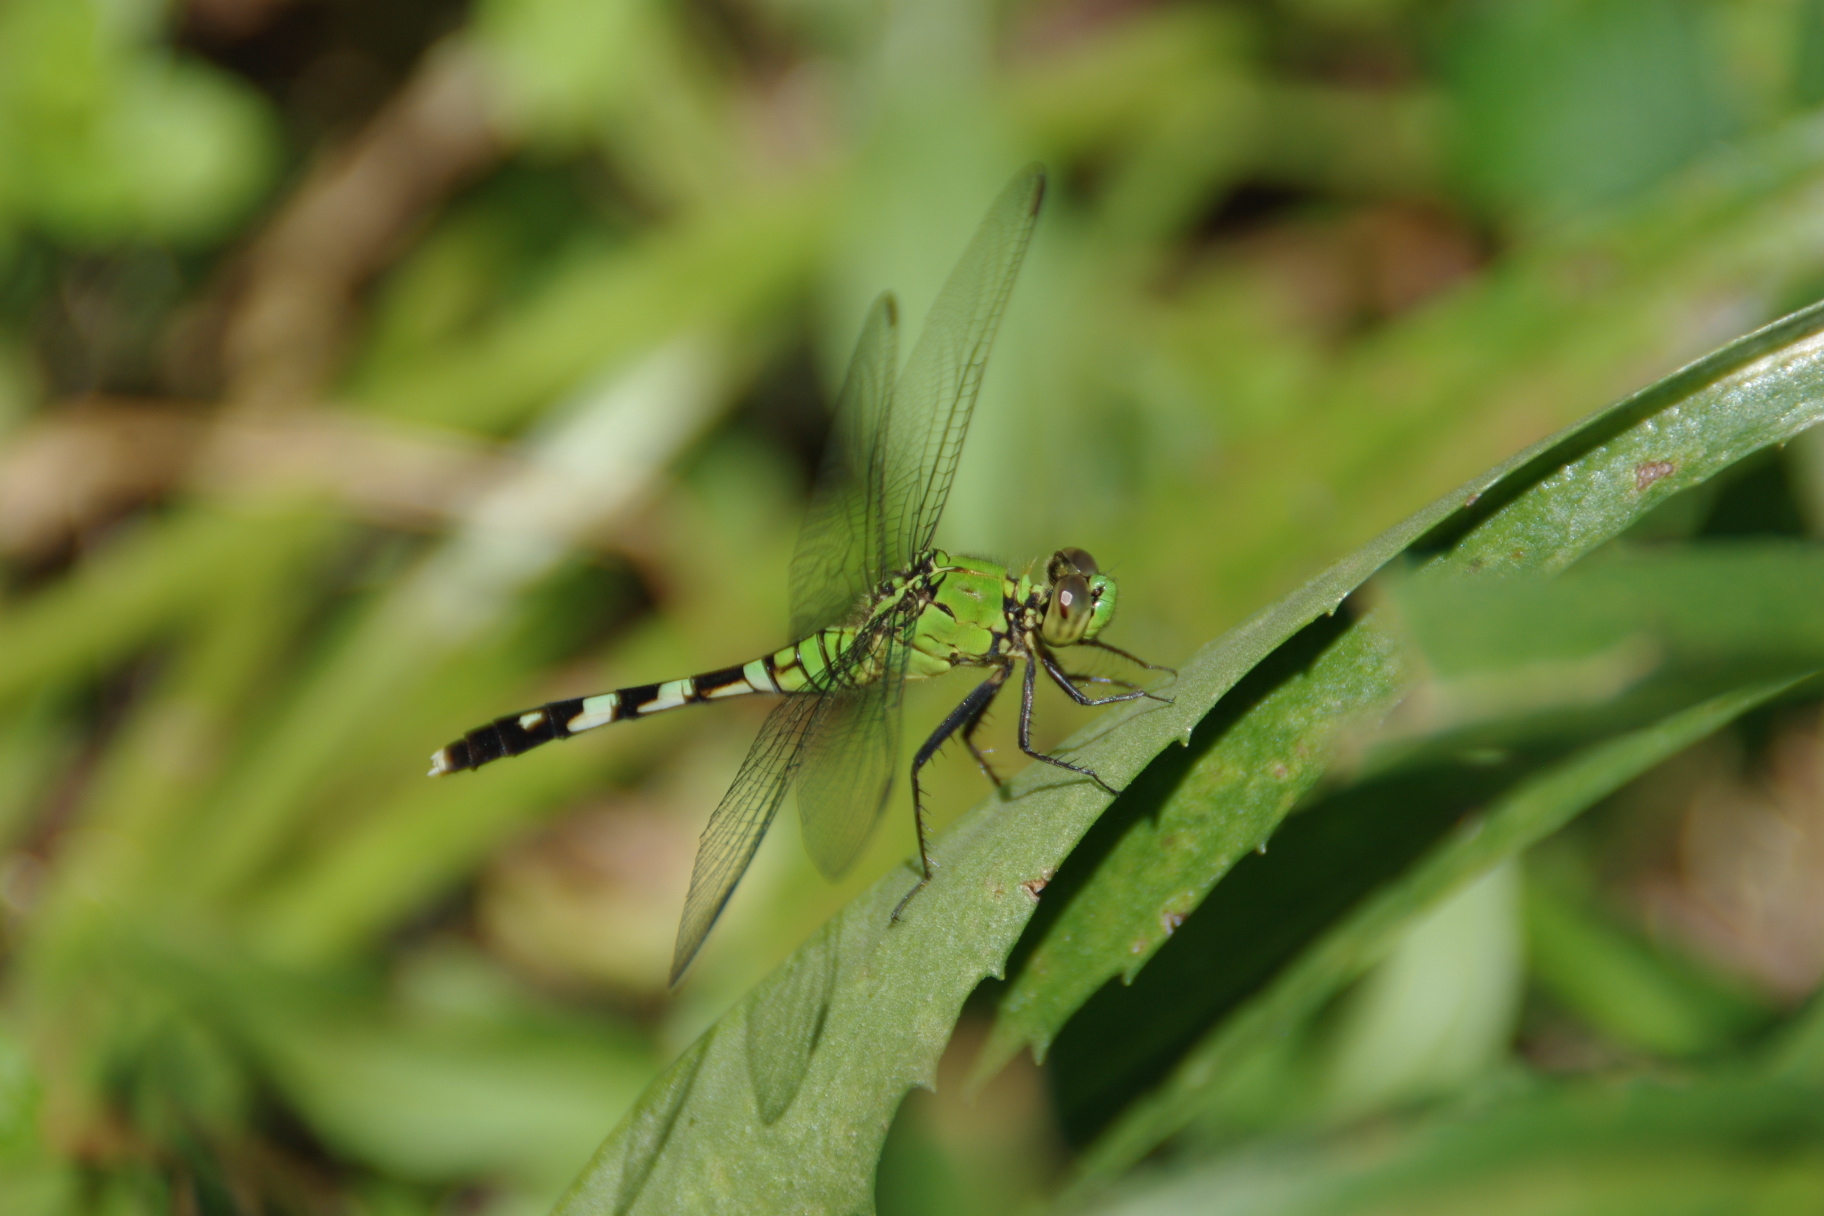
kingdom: Animalia
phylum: Arthropoda
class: Insecta
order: Odonata
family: Libellulidae
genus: Erythemis
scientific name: Erythemis simplicicollis
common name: Eastern pondhawk
